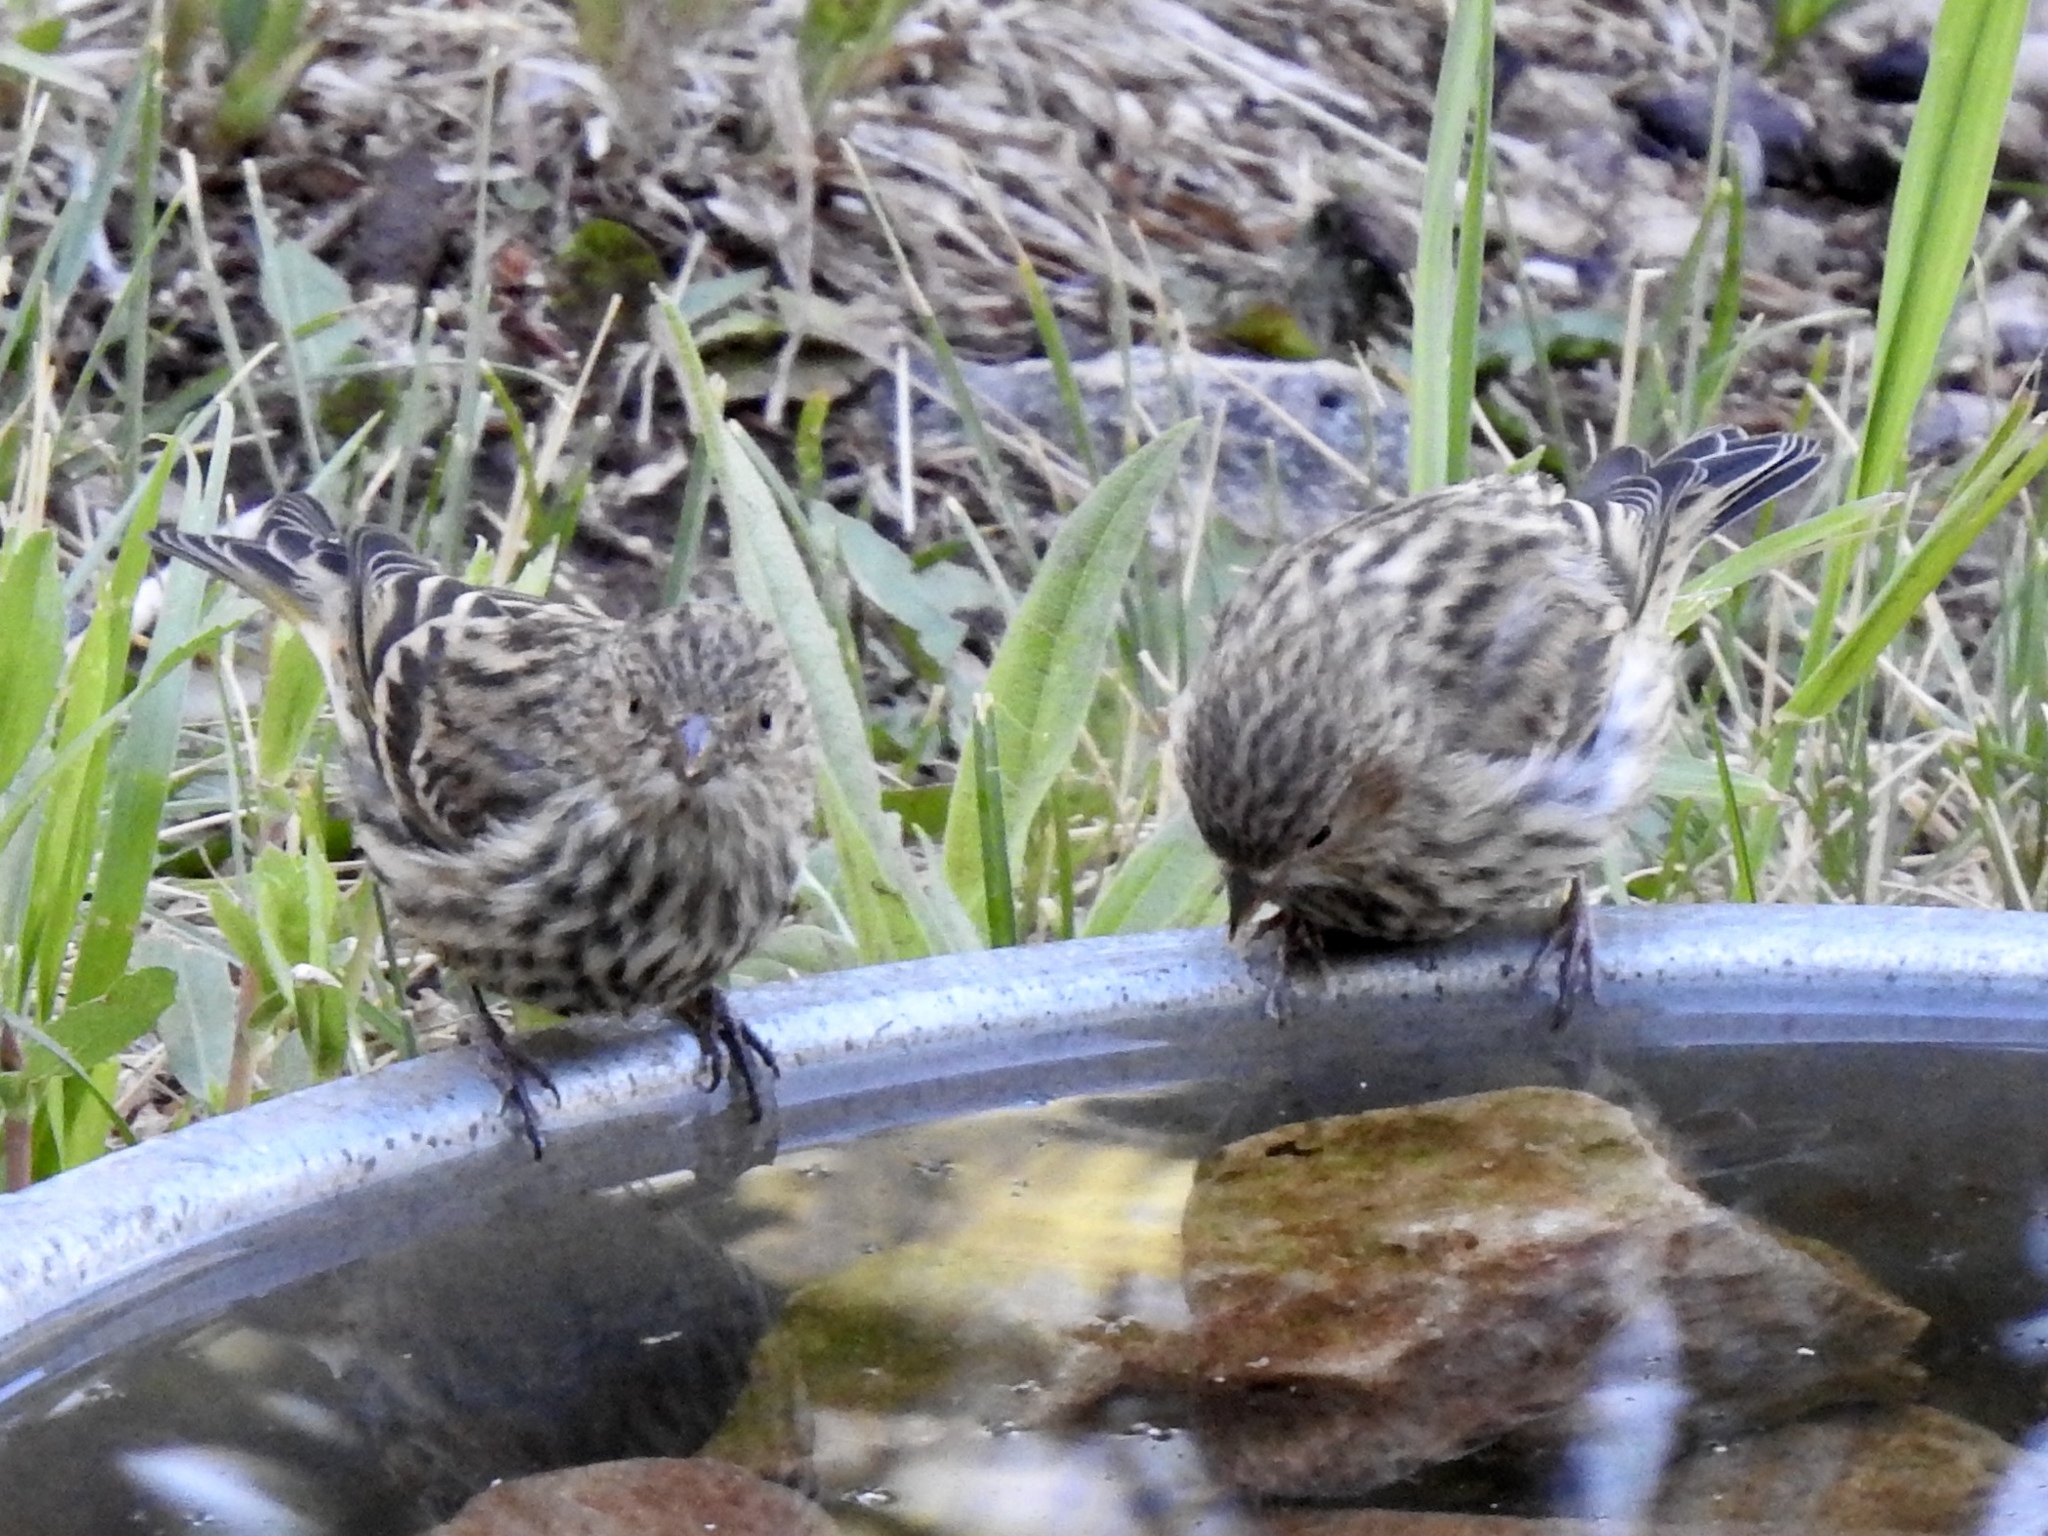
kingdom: Animalia
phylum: Chordata
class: Aves
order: Passeriformes
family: Fringillidae
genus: Spinus
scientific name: Spinus pinus
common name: Pine siskin
